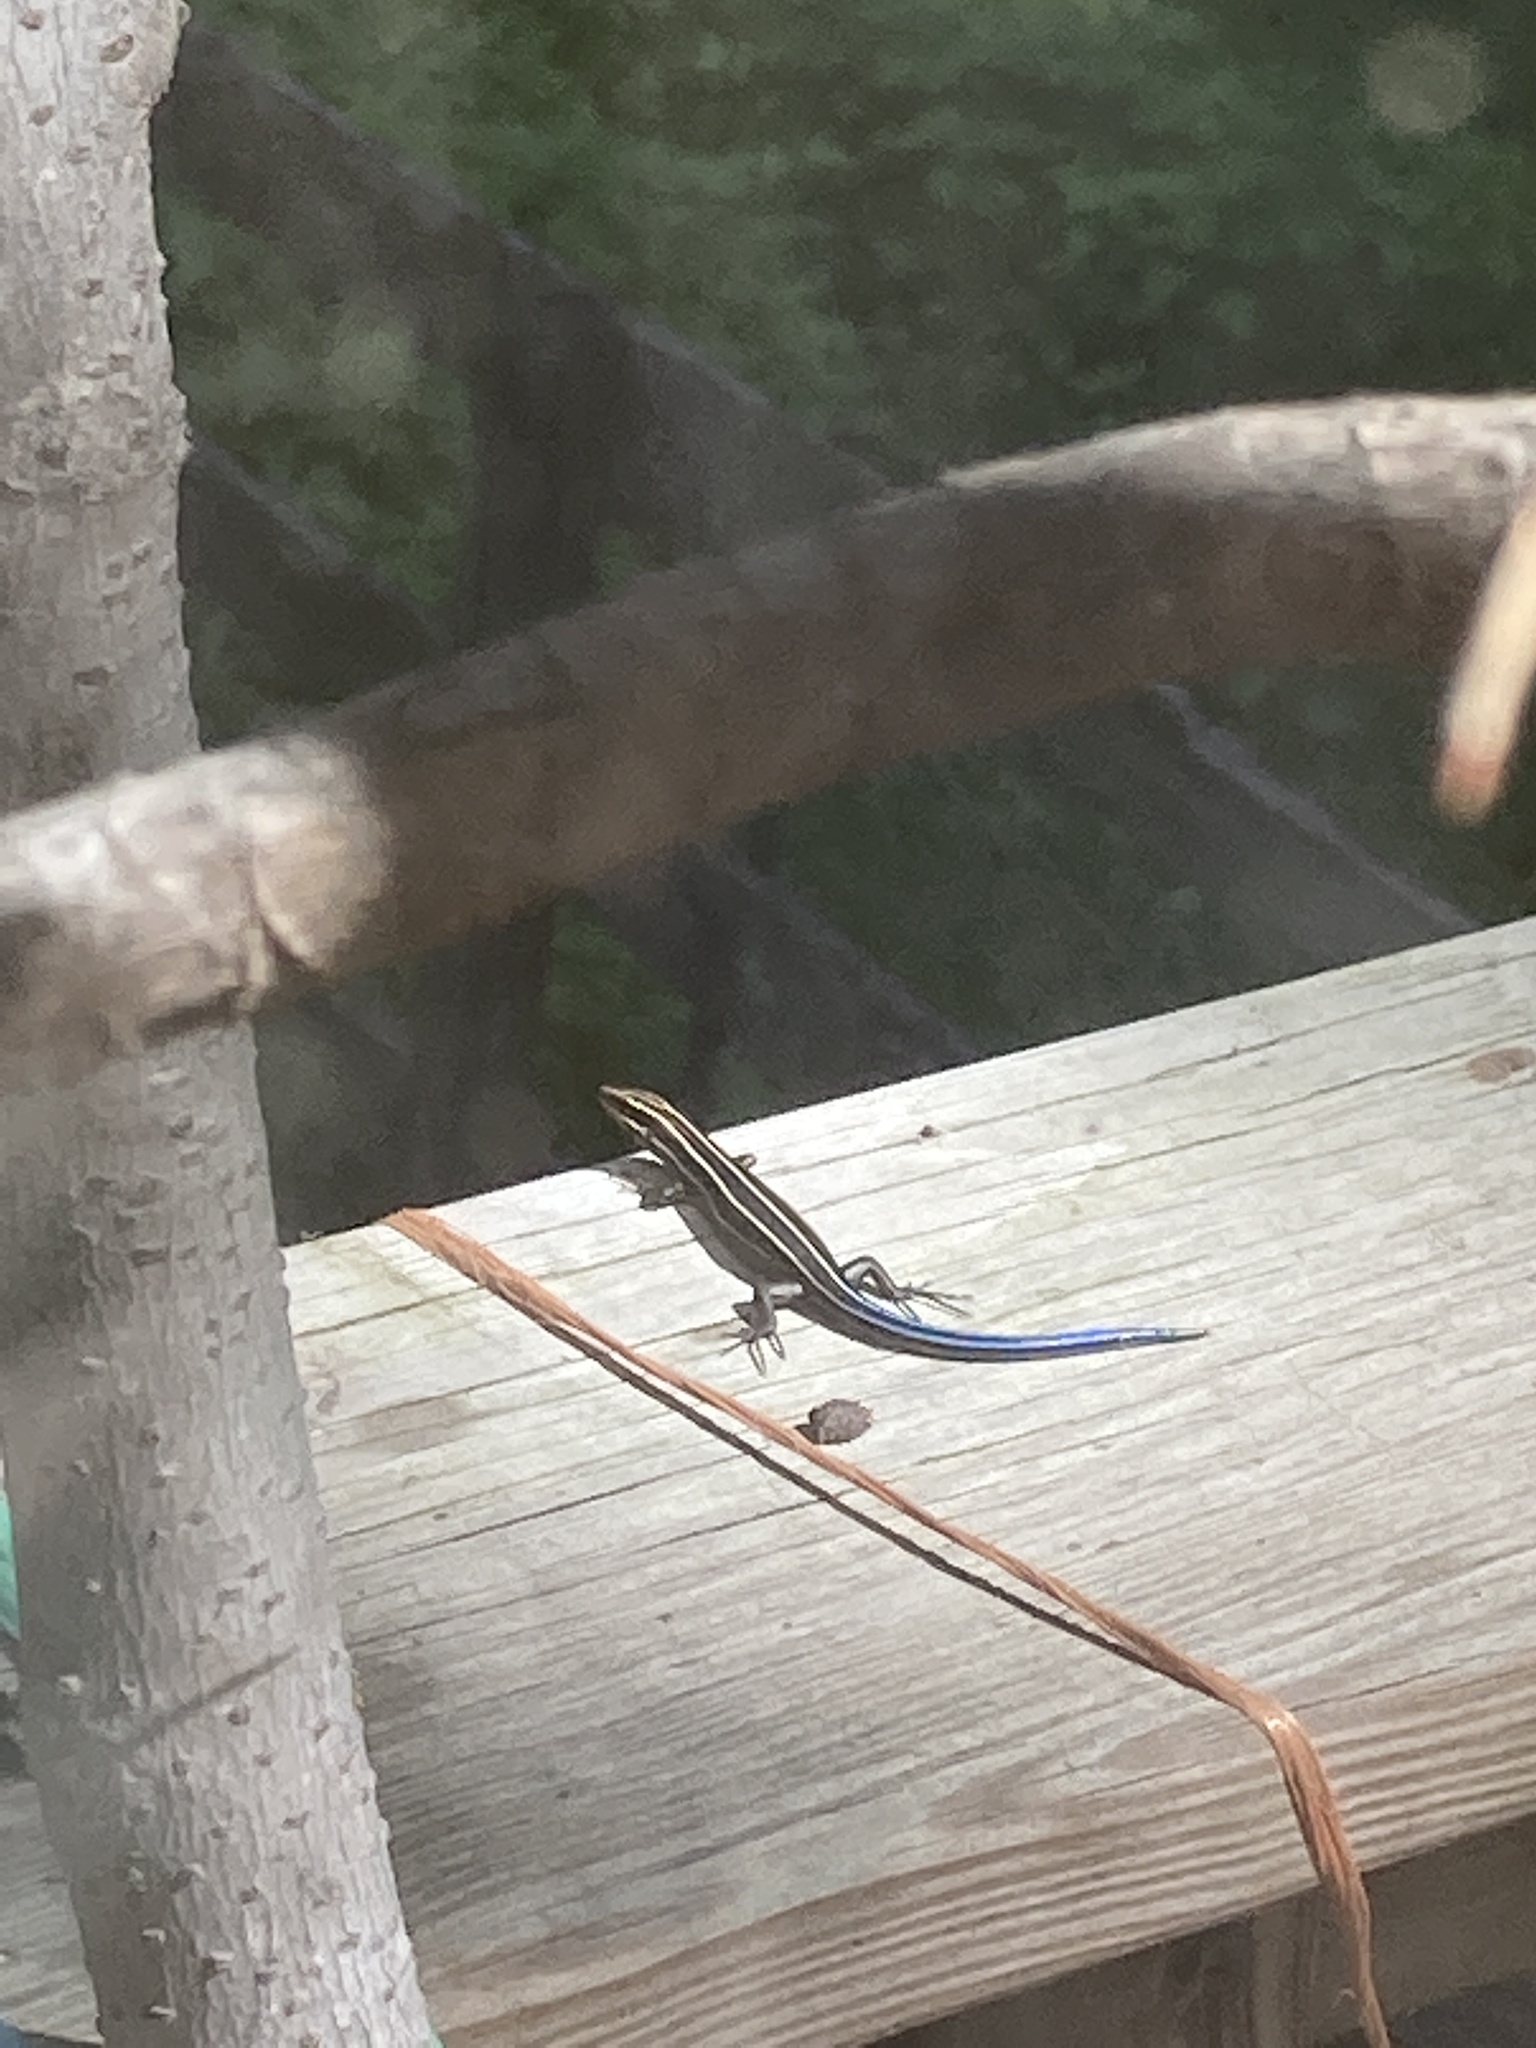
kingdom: Animalia
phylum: Chordata
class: Squamata
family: Scincidae
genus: Plestiodon
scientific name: Plestiodon fasciatus
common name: Five-lined skink
